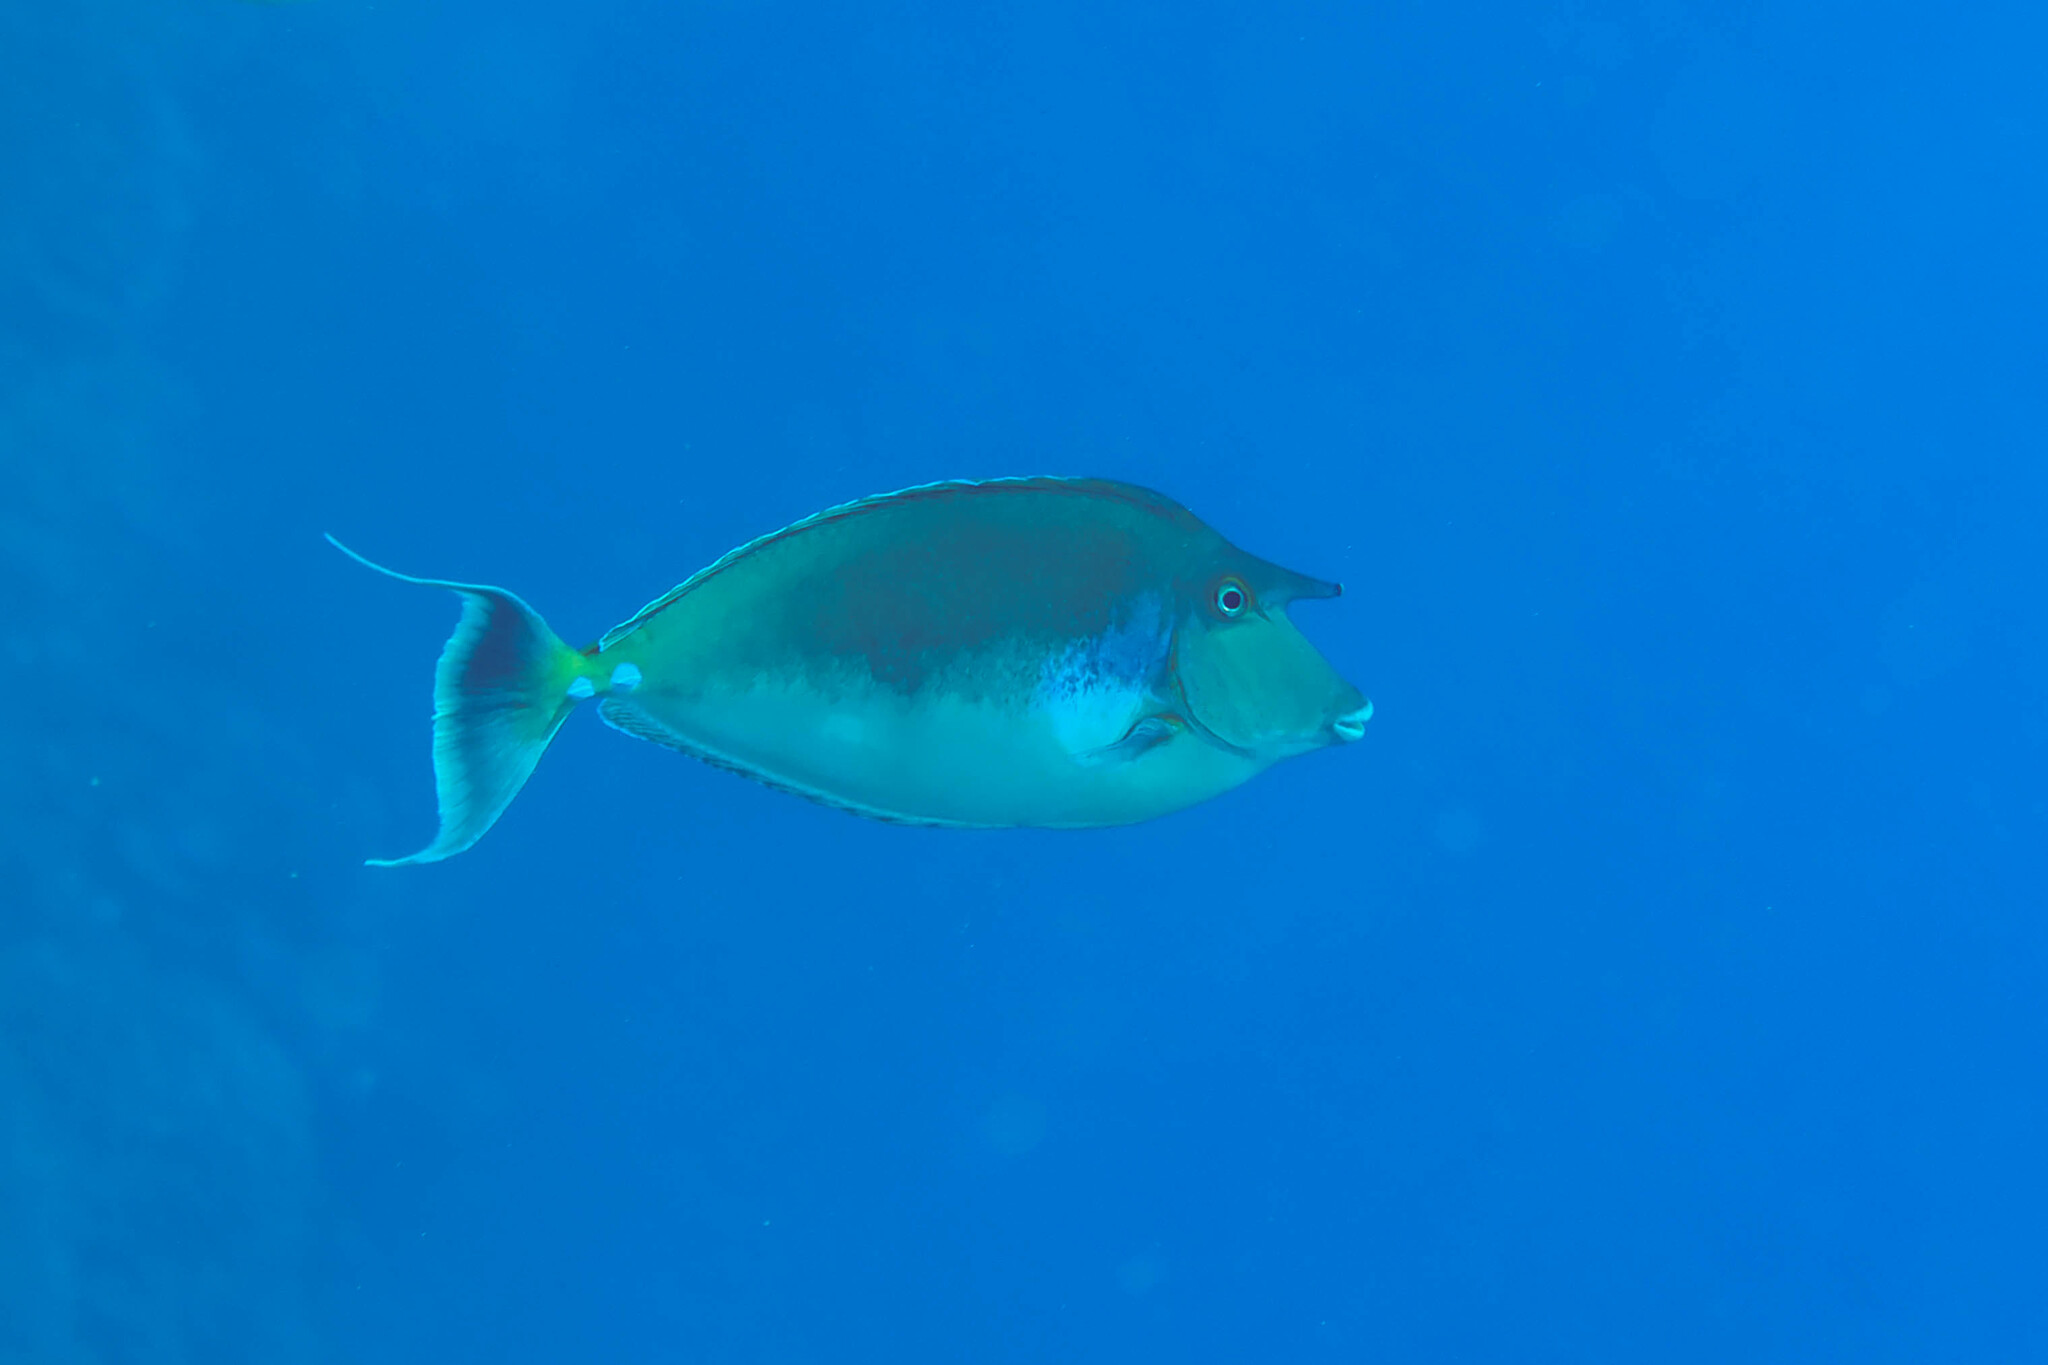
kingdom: Animalia
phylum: Chordata
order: Perciformes
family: Acanthuridae
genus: Naso
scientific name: Naso unicornis
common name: Bluespine unicornfish
